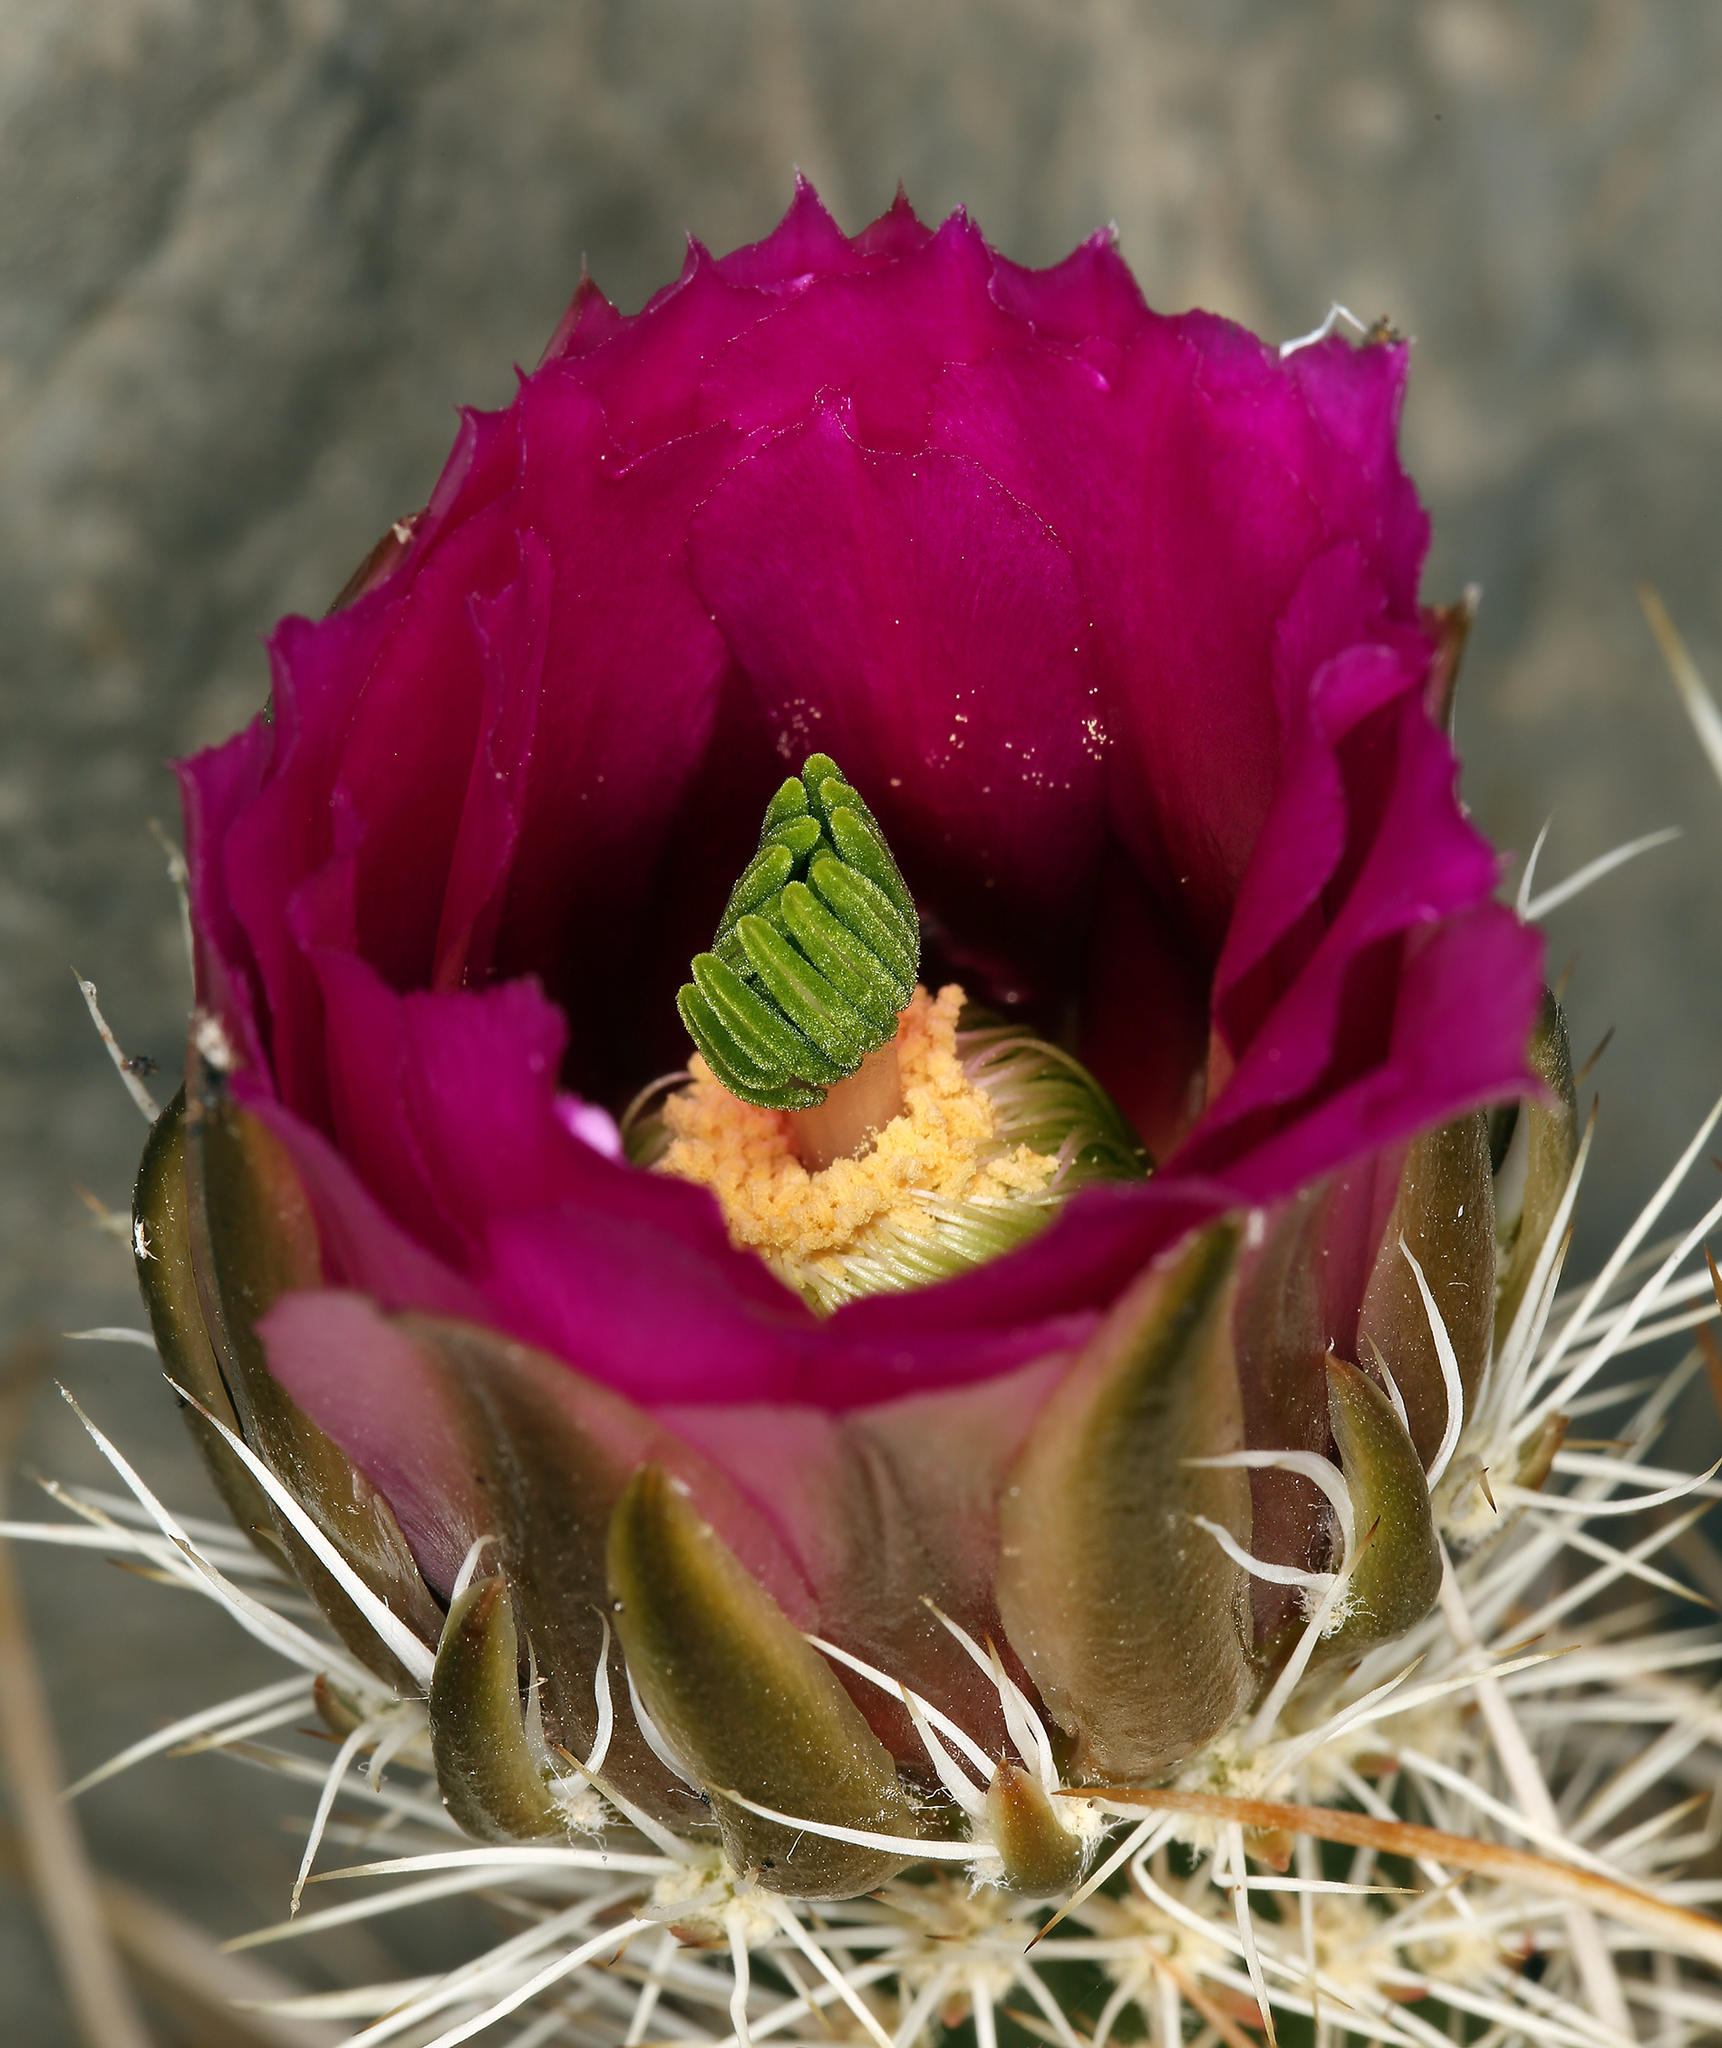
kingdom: Plantae
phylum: Tracheophyta
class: Magnoliopsida
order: Caryophyllales
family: Cactaceae
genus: Echinocereus
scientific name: Echinocereus engelmannii
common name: Engelmann's hedgehog cactus
